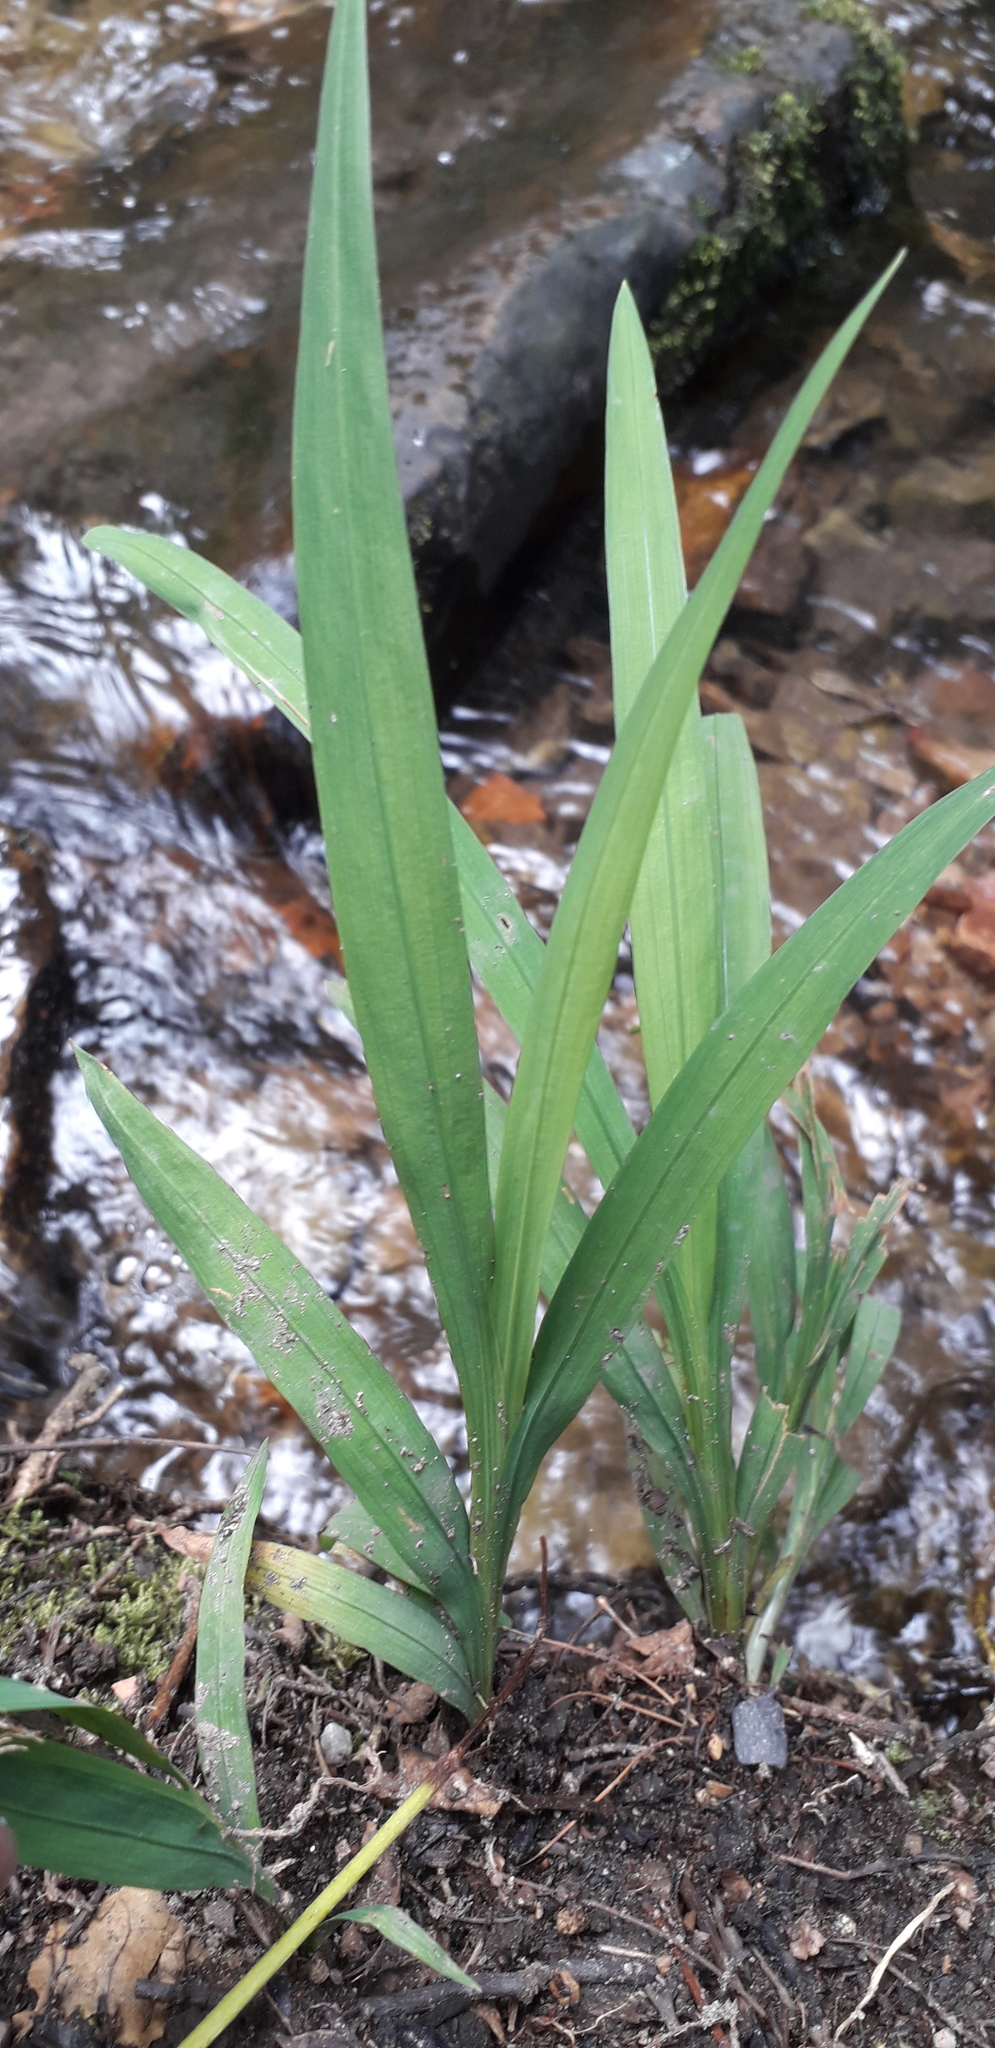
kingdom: Plantae
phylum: Tracheophyta
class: Liliopsida
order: Asparagales
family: Iridaceae
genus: Crocosmia
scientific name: Crocosmia crocosmiiflora
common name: Montbretia
